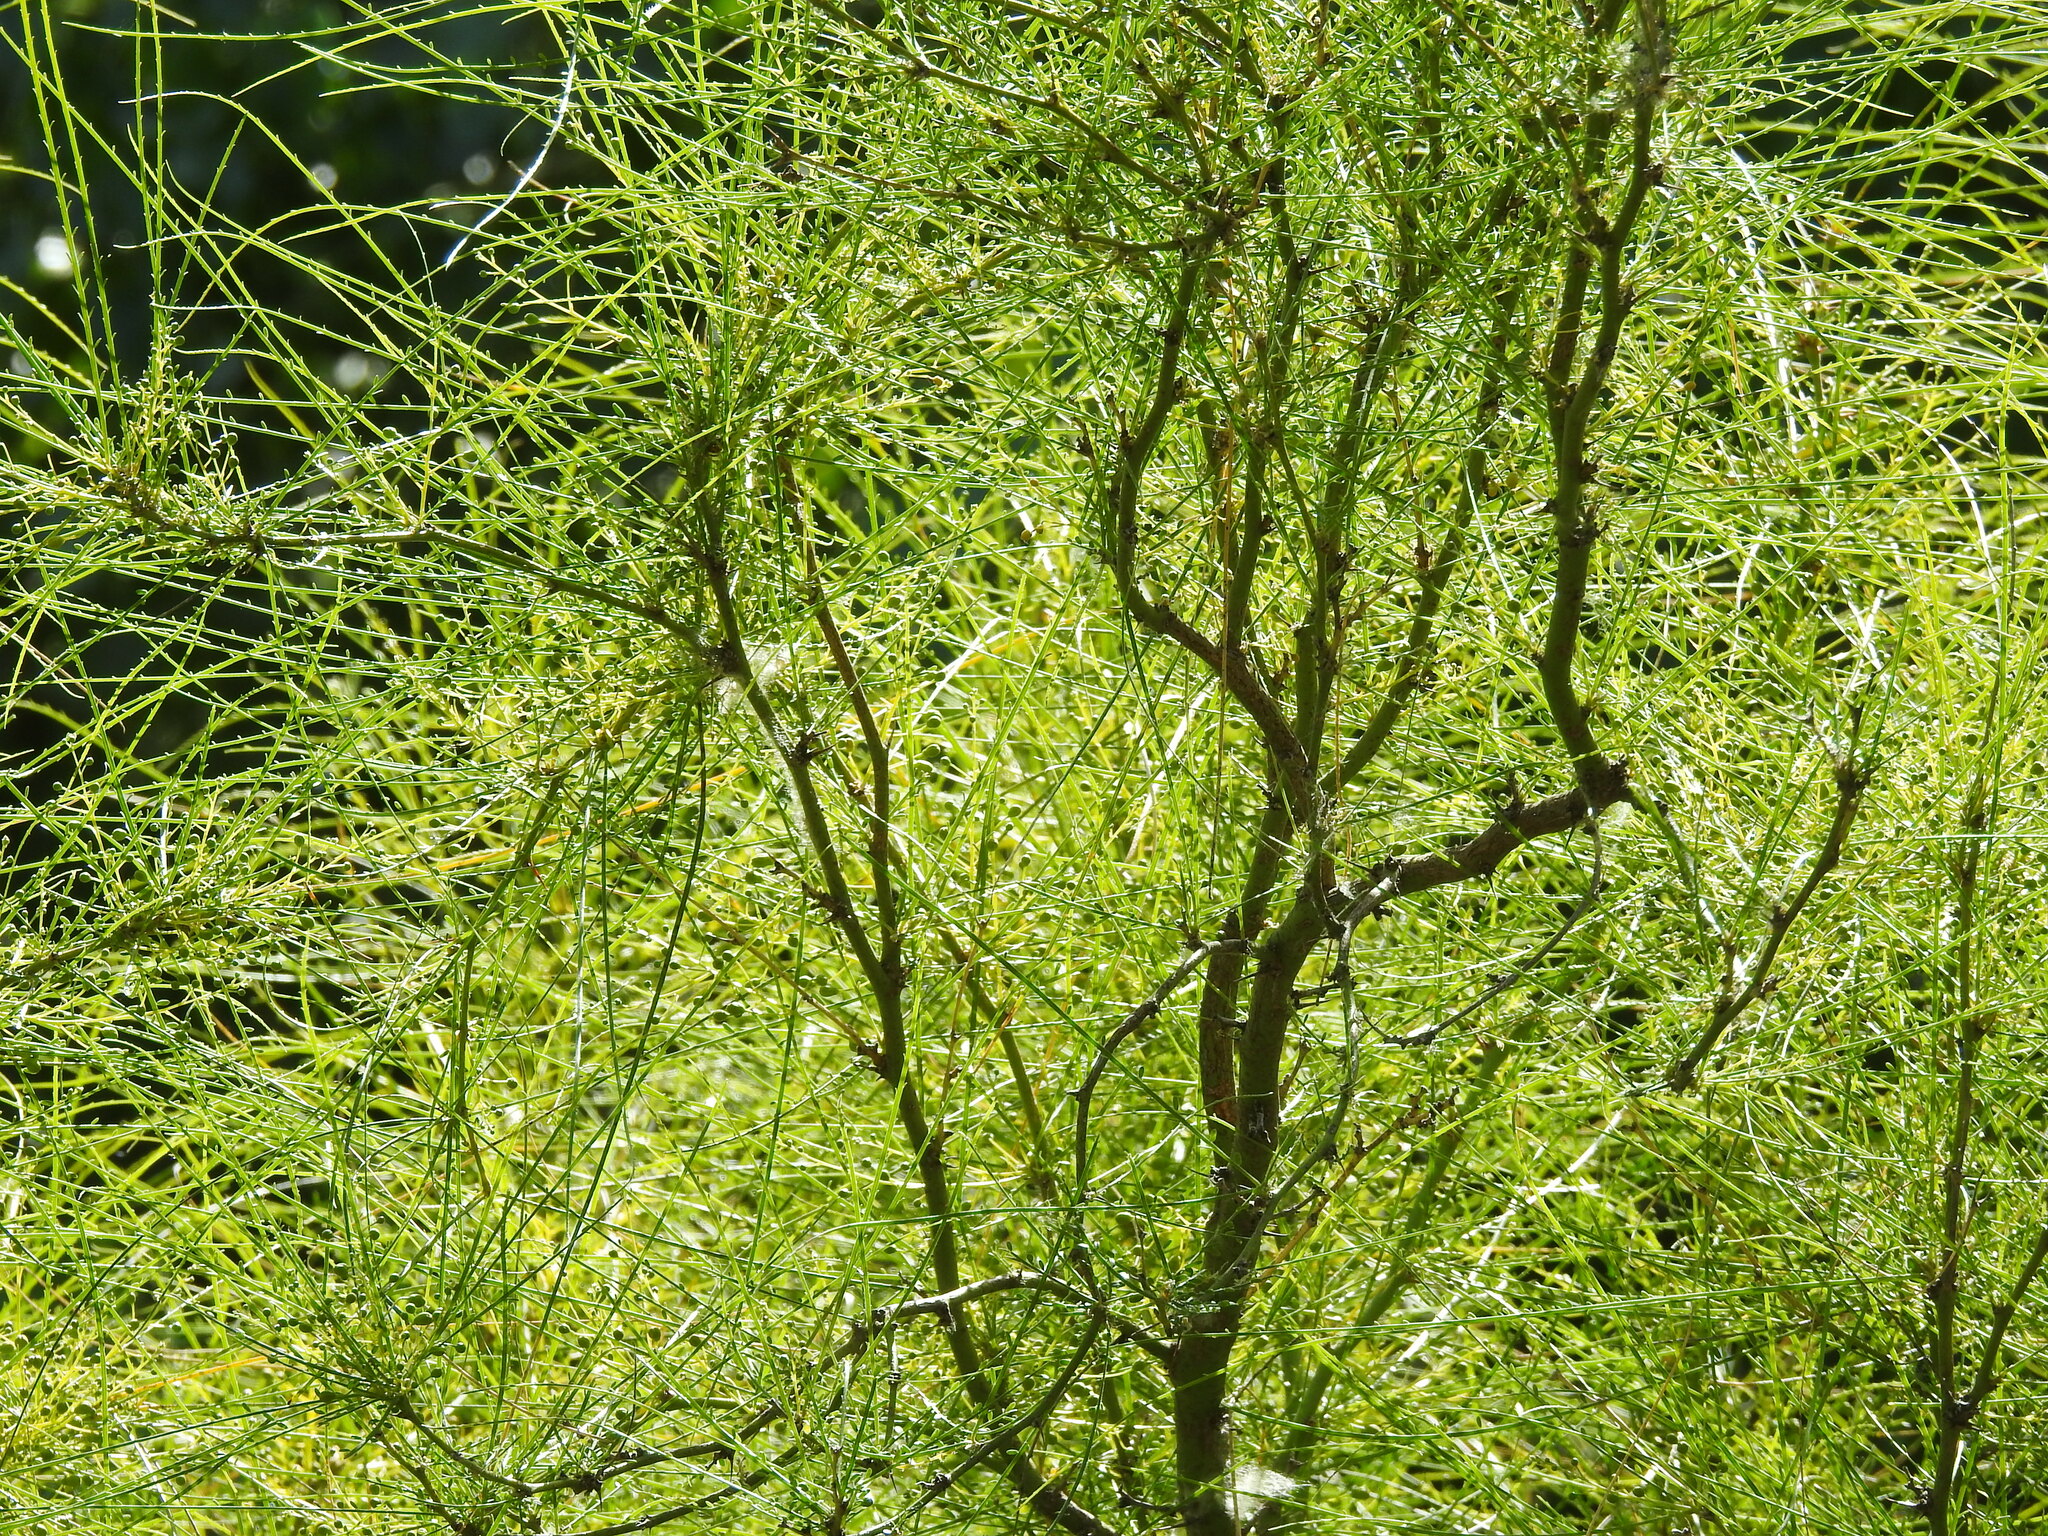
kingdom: Plantae
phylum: Tracheophyta
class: Magnoliopsida
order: Fabales
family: Fabaceae
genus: Parkinsonia
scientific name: Parkinsonia aculeata
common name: Jerusalem thorn
